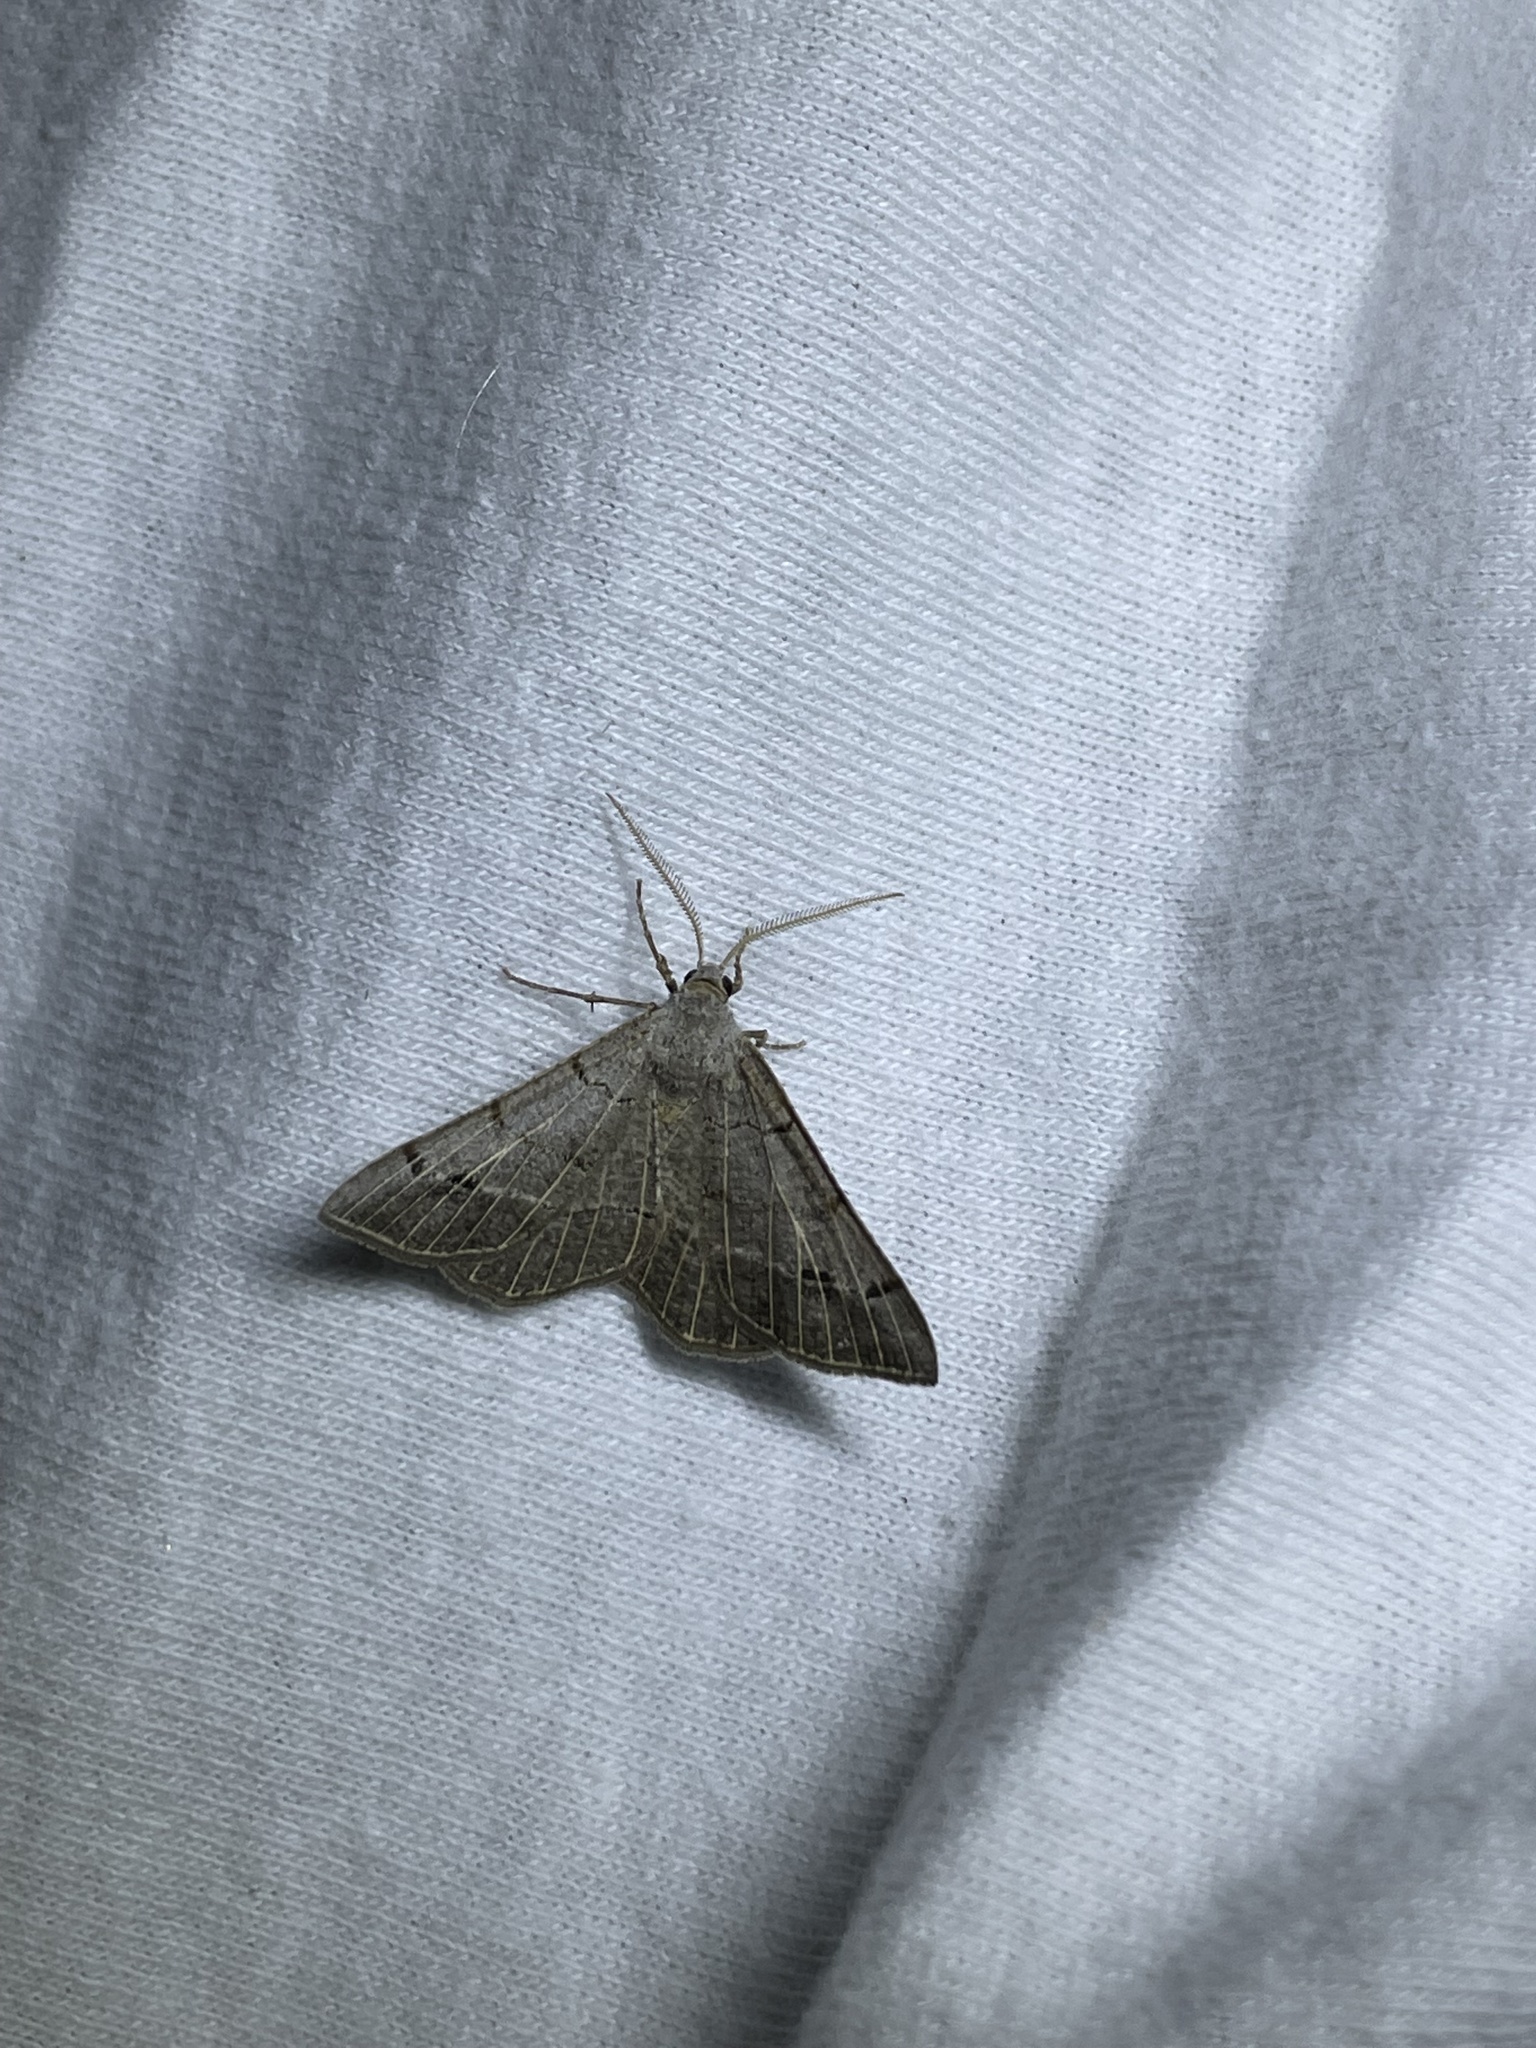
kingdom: Animalia
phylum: Arthropoda
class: Insecta
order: Lepidoptera
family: Geometridae
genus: Isturgia
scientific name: Isturgia dislocaria
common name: Pale-viened enconista
